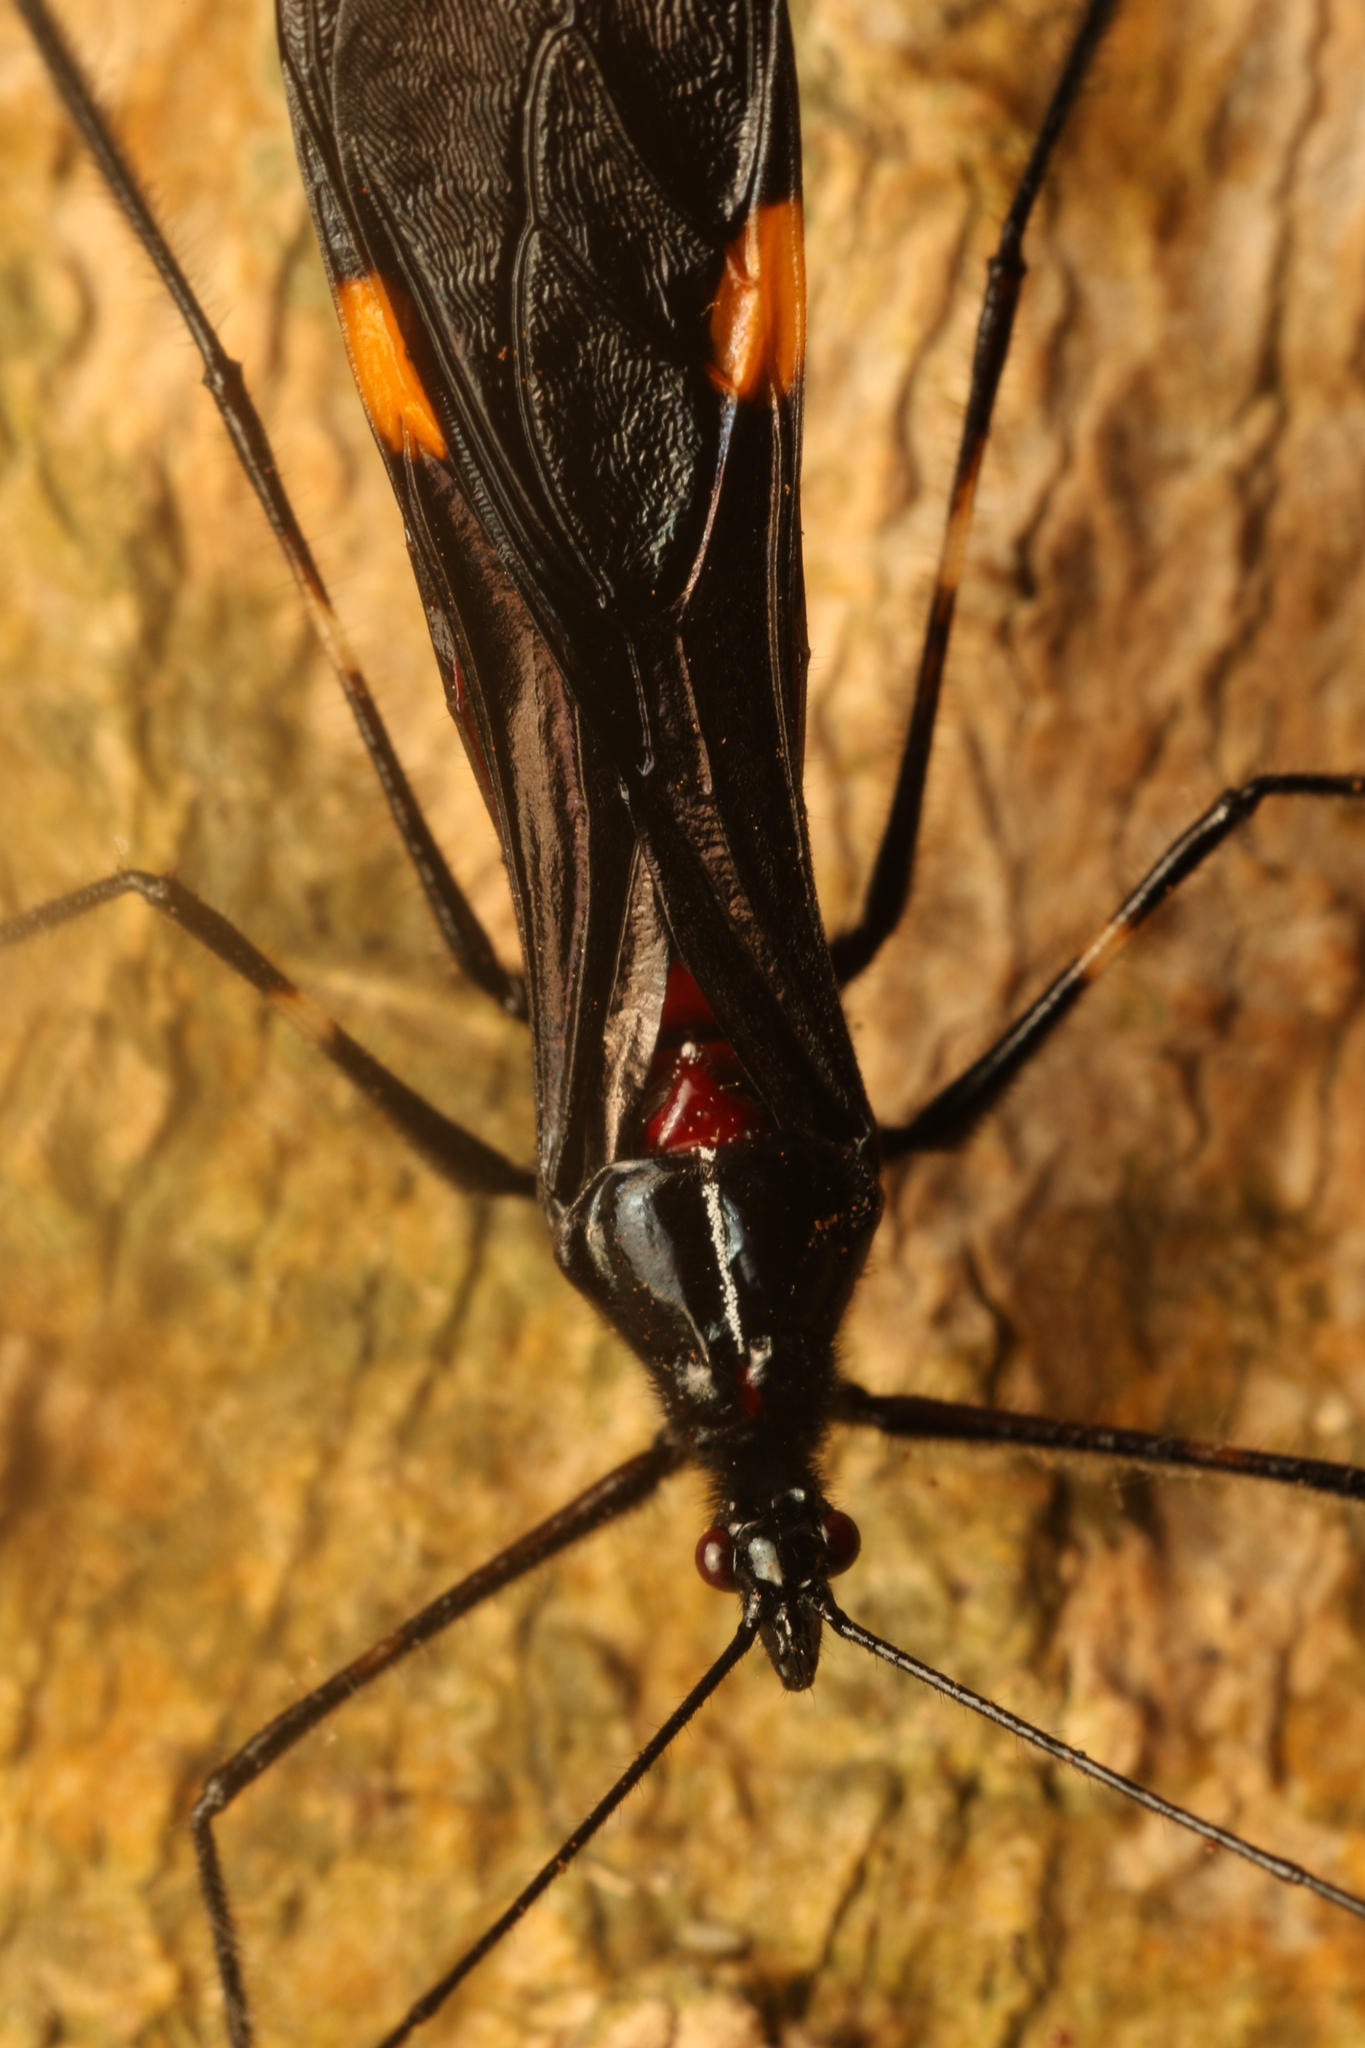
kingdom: Animalia
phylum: Arthropoda
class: Insecta
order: Hemiptera
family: Reduviidae
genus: Parahiranetis
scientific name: Parahiranetis salgadoi
